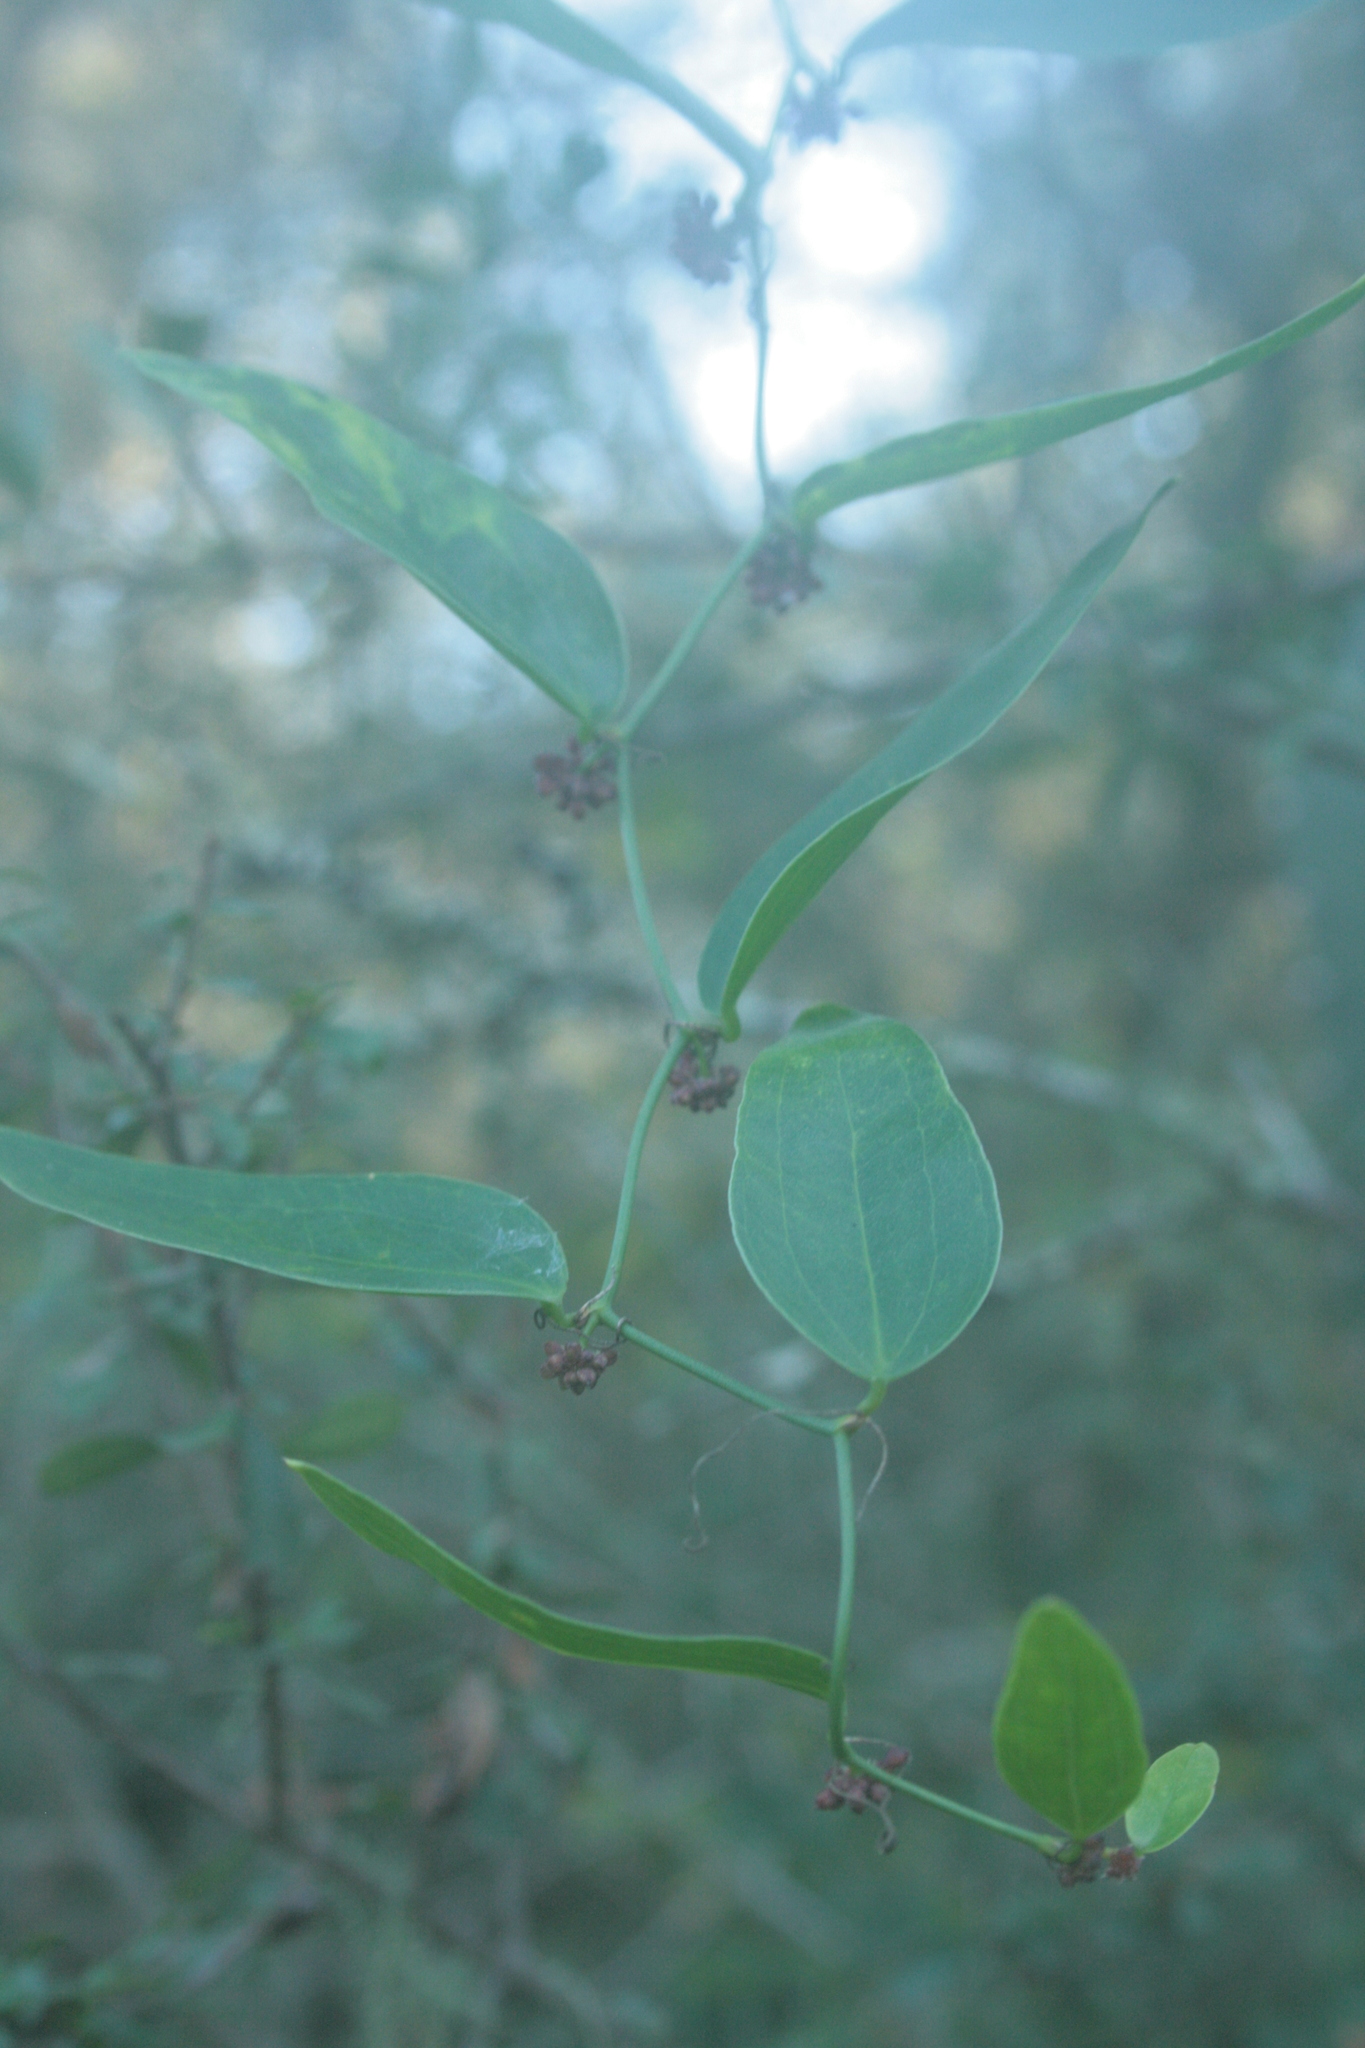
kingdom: Plantae
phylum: Tracheophyta
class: Liliopsida
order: Liliales
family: Smilacaceae
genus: Smilax
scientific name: Smilax campestris
